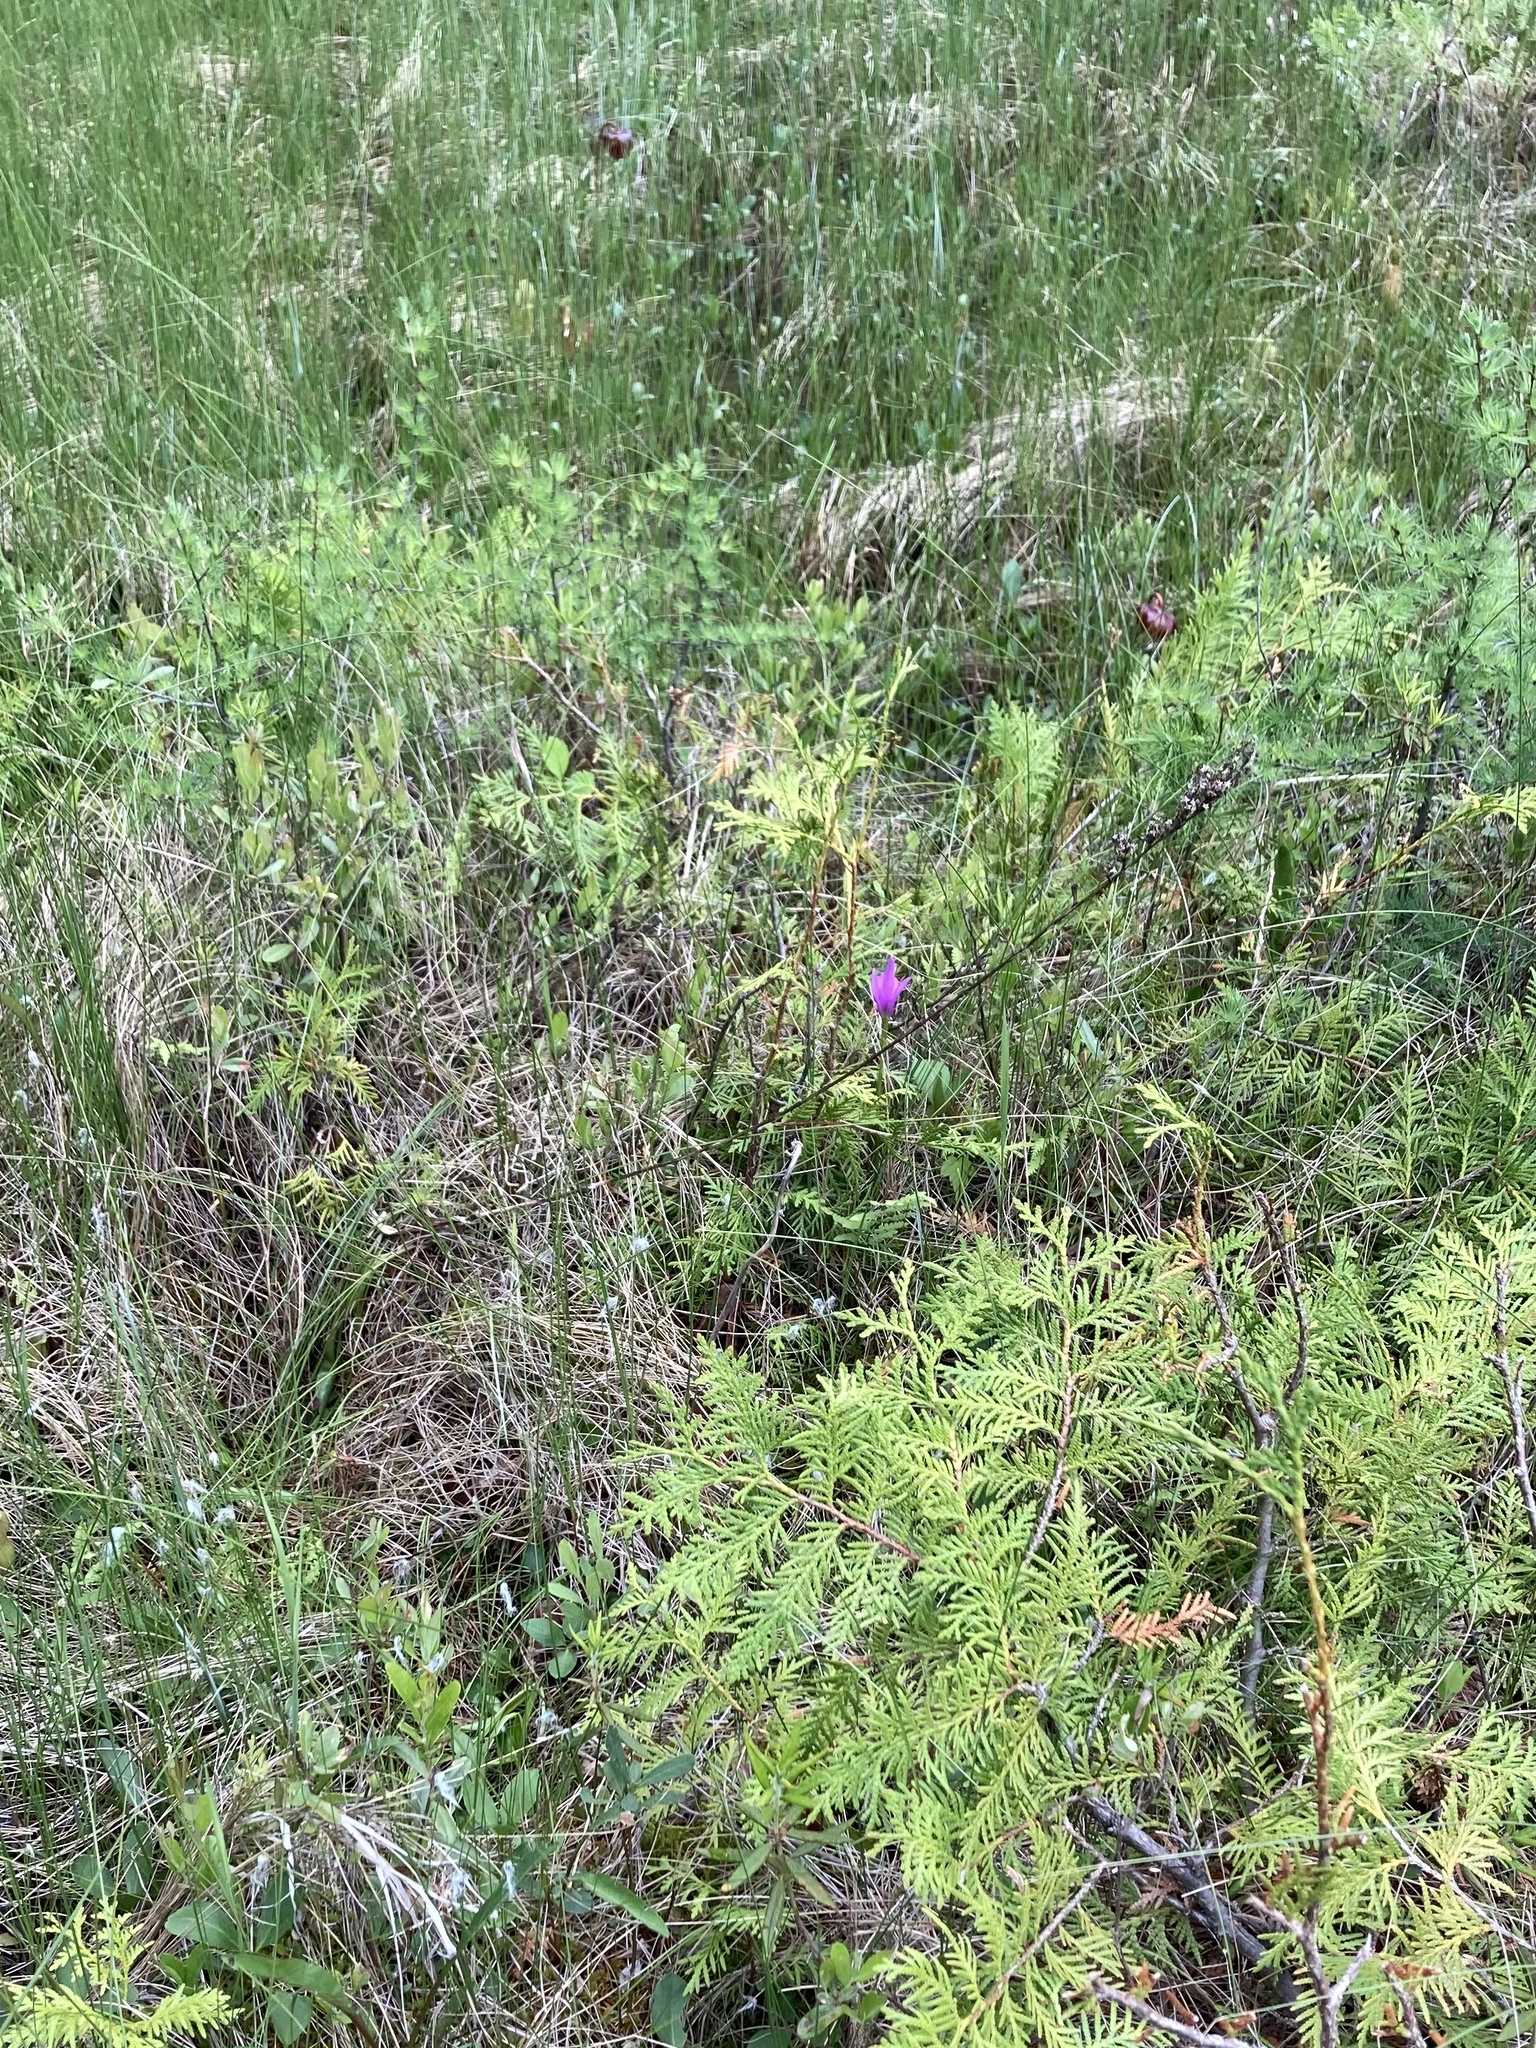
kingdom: Plantae
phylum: Tracheophyta
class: Liliopsida
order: Asparagales
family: Orchidaceae
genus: Arethusa
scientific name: Arethusa bulbosa
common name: Arethusa
